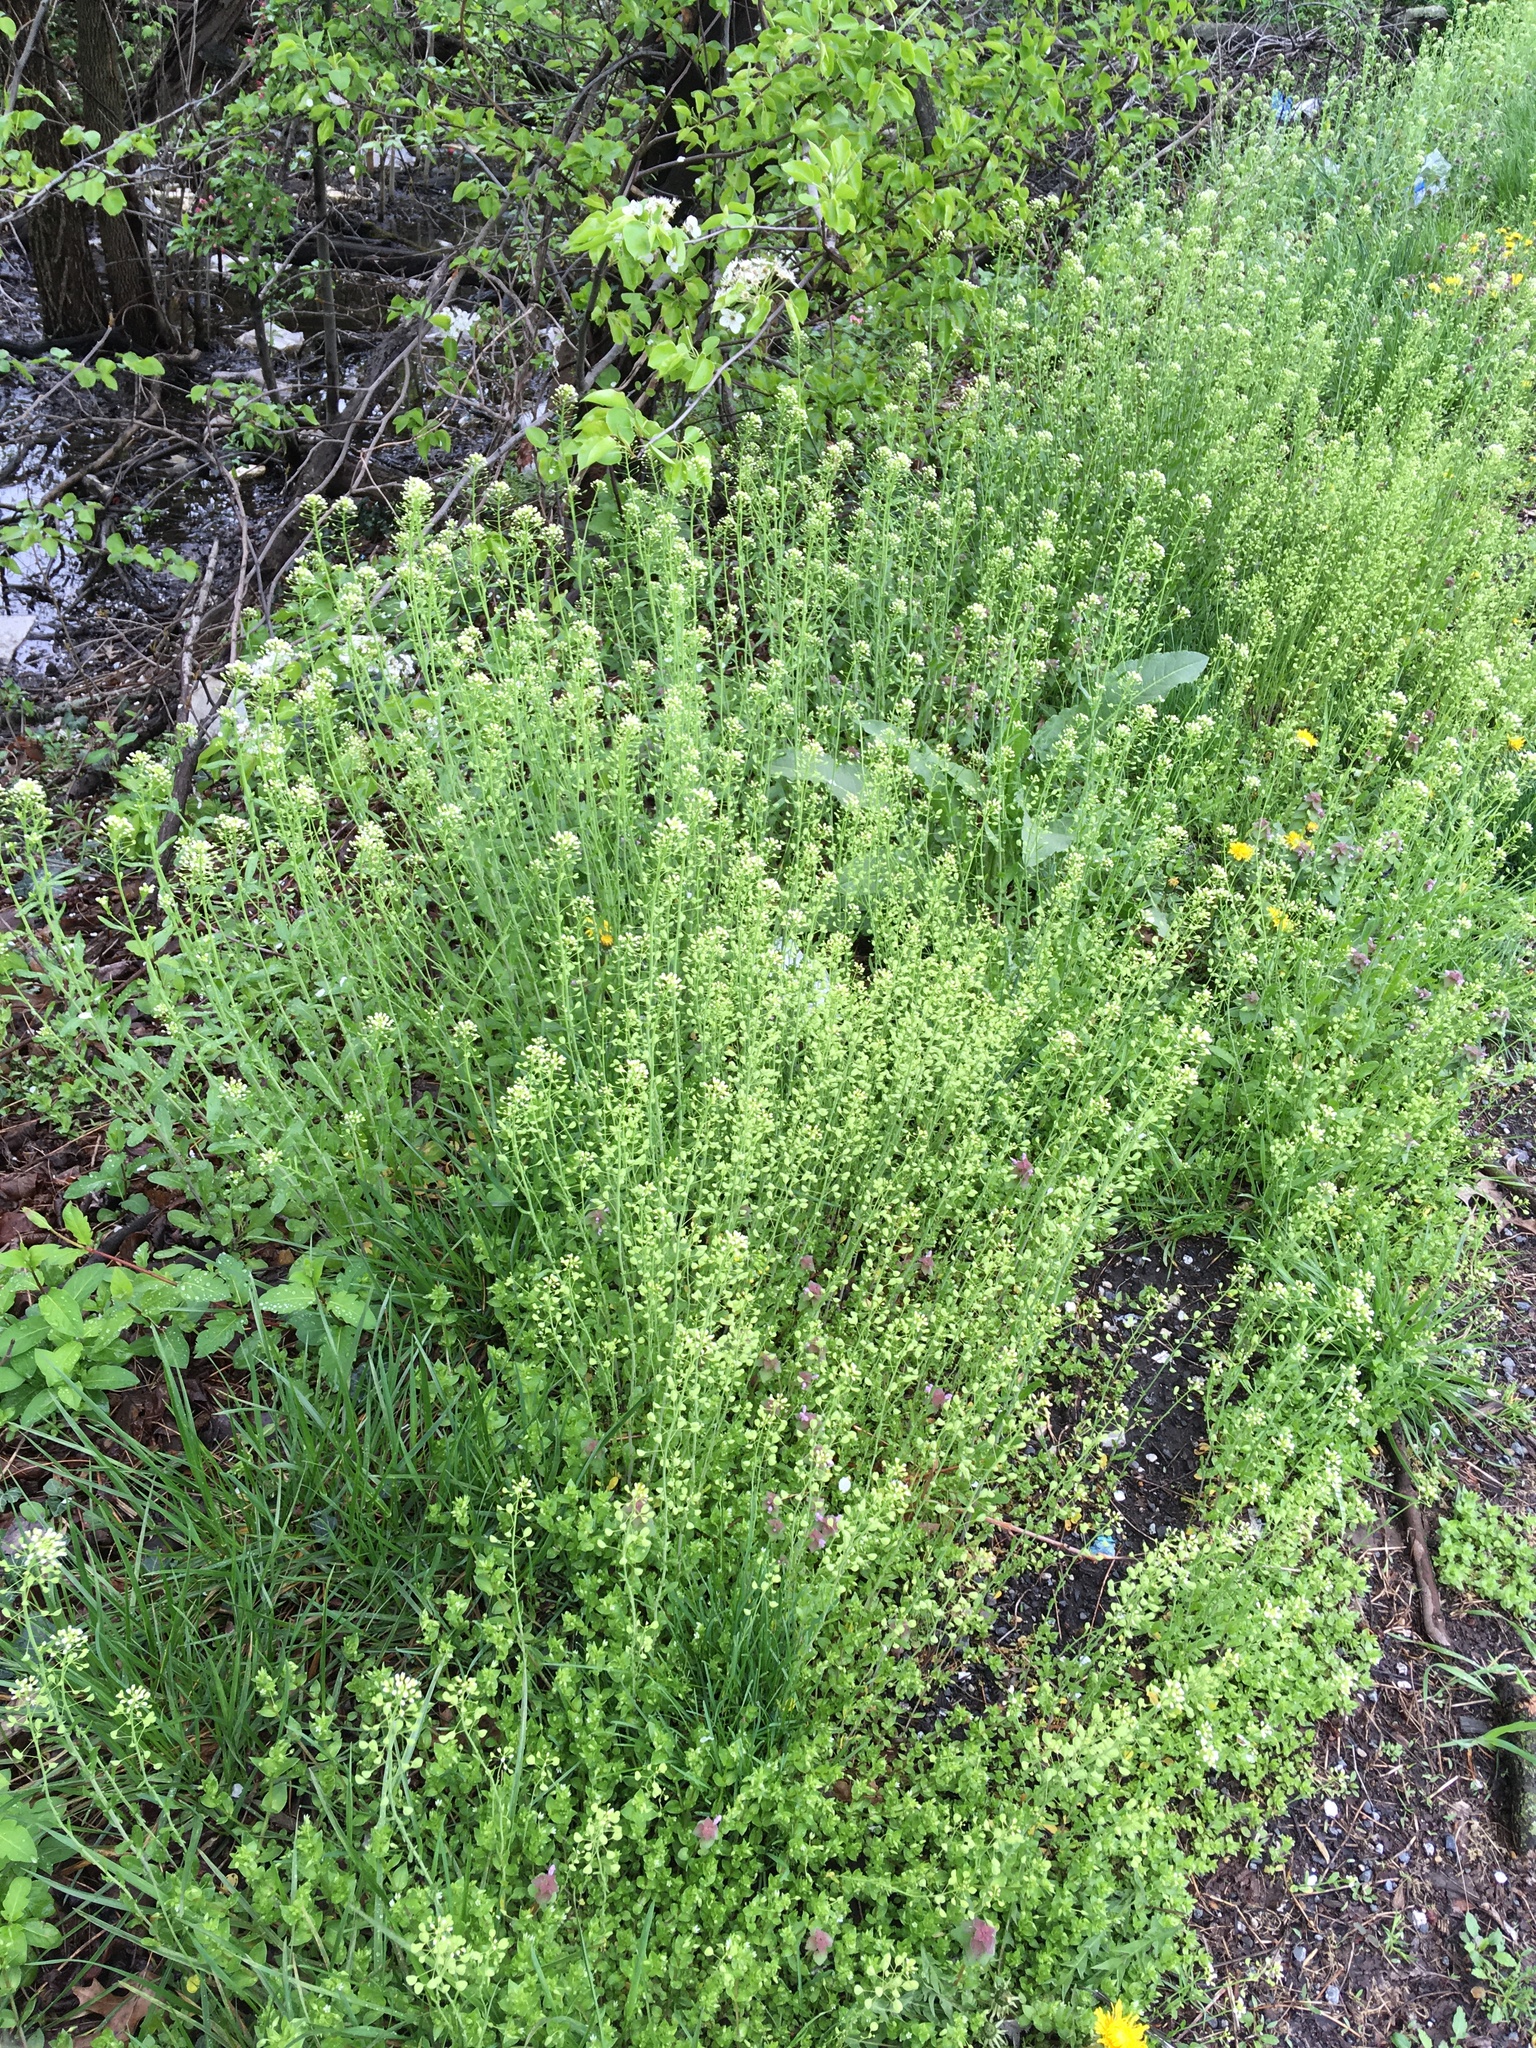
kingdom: Plantae
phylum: Tracheophyta
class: Magnoliopsida
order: Brassicales
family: Brassicaceae
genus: Mummenhoffia
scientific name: Mummenhoffia alliacea
